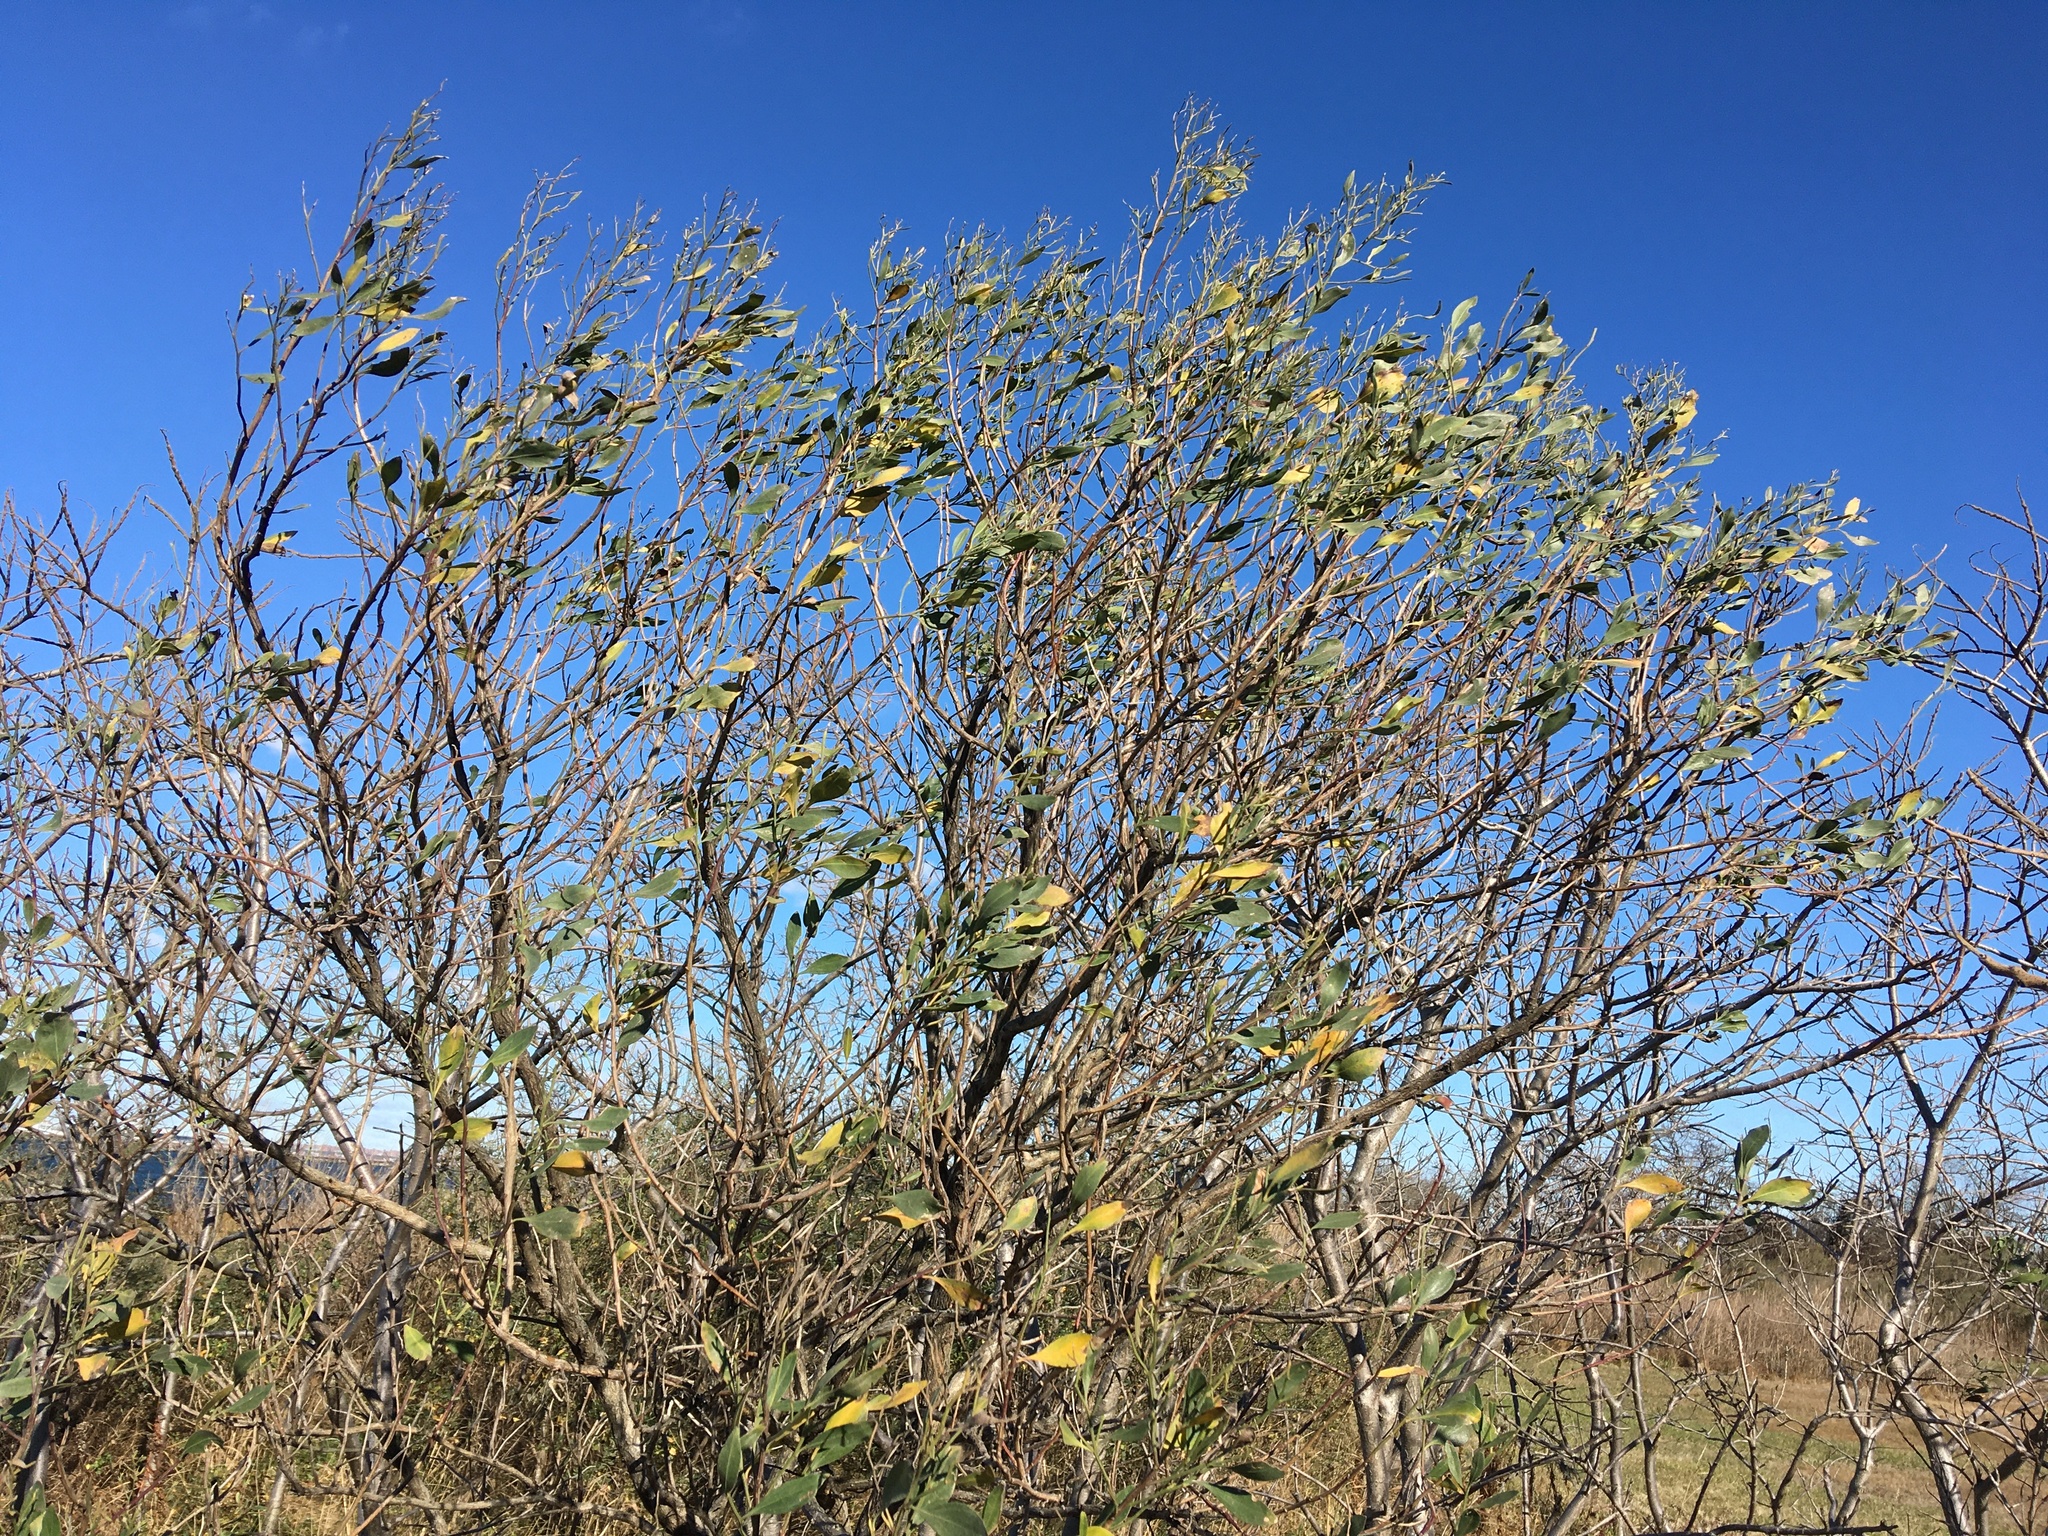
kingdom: Plantae
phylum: Tracheophyta
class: Magnoliopsida
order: Asterales
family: Asteraceae
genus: Baccharis
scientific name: Baccharis halimifolia
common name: Eastern baccharis
